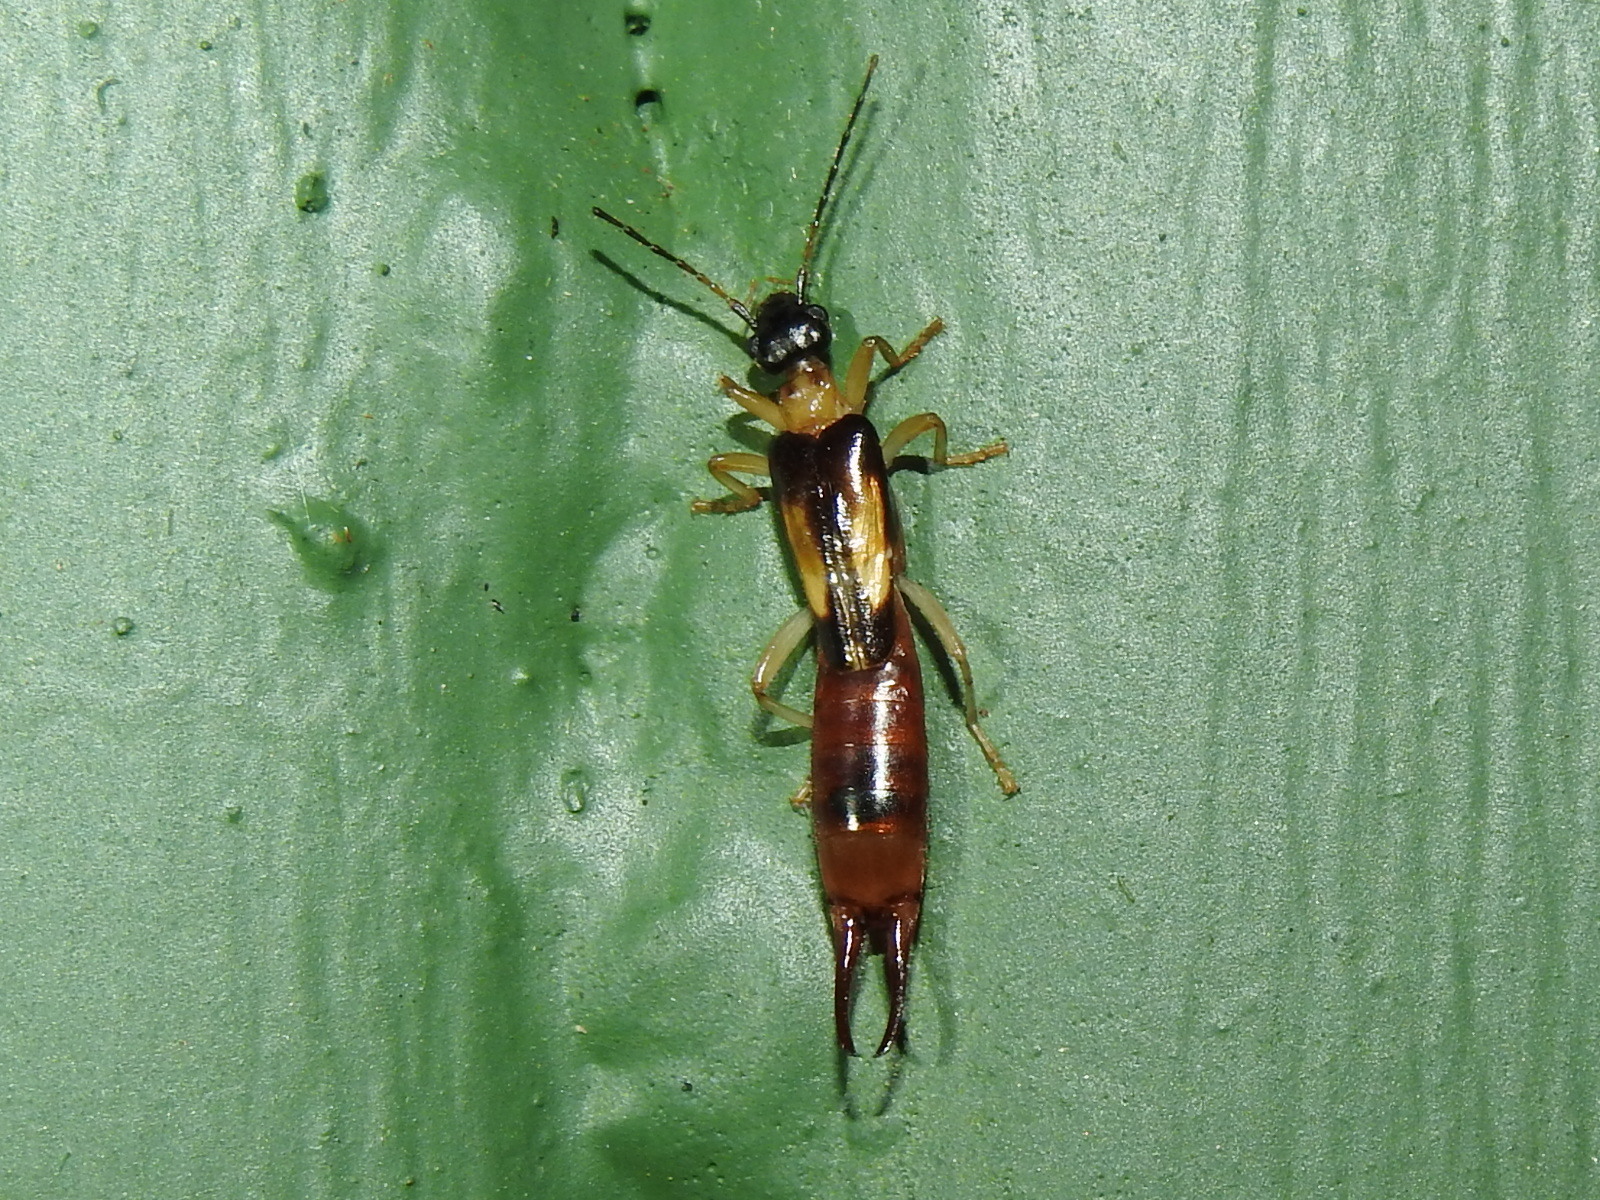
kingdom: Animalia
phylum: Arthropoda
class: Insecta
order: Dermaptera
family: Spongiphoridae
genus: Purex
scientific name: Purex remotus
